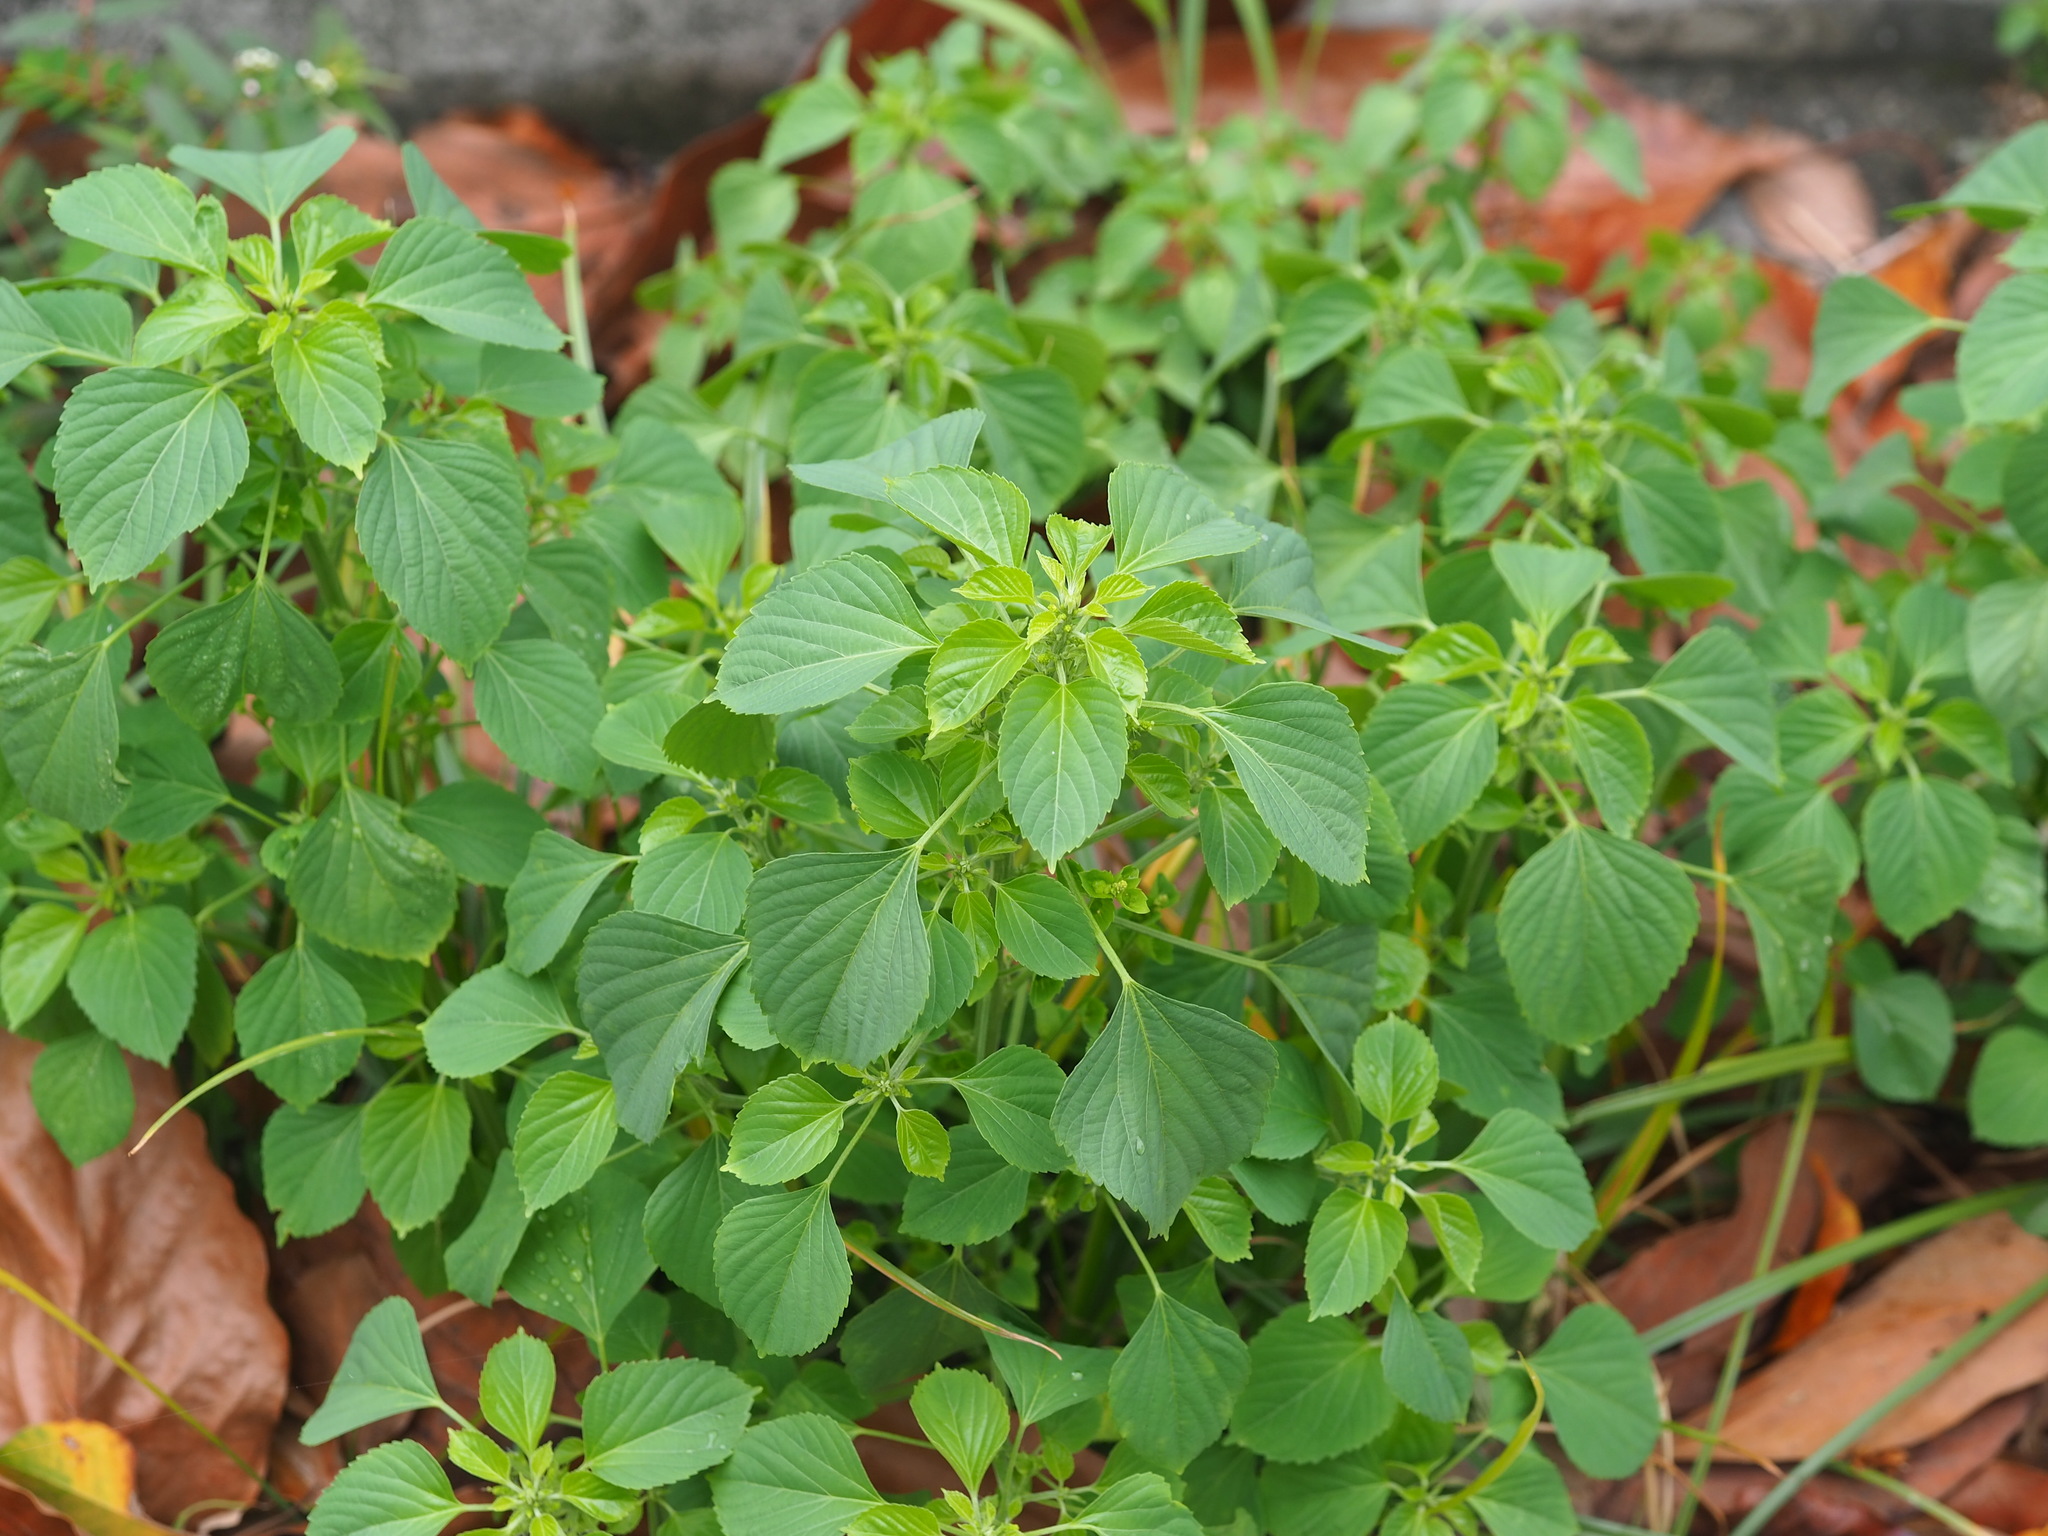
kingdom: Plantae
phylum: Tracheophyta
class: Magnoliopsida
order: Malpighiales
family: Euphorbiaceae
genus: Acalypha
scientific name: Acalypha indica
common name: Indian acalypha
